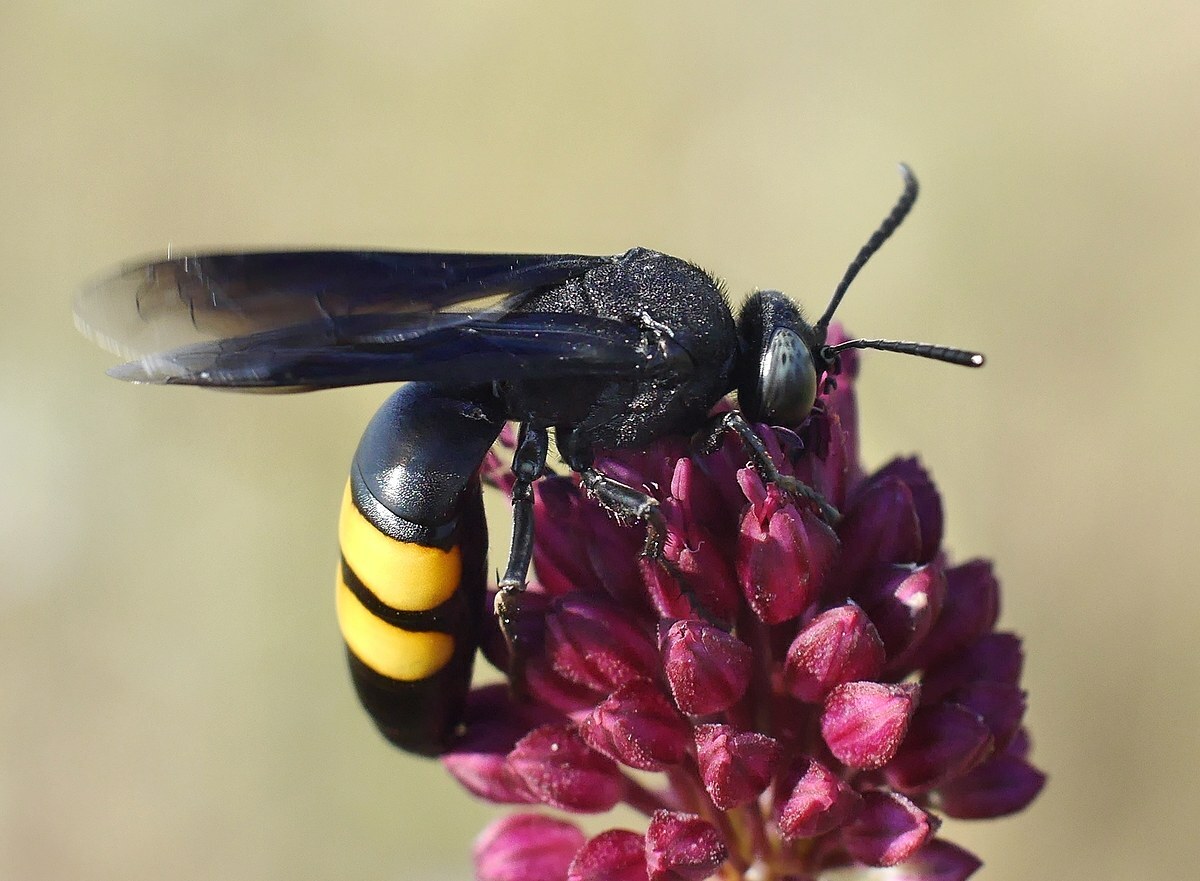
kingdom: Animalia
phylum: Arthropoda
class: Insecta
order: Hymenoptera
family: Crabronidae
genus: Stizoides
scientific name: Stizoides tridentatus
